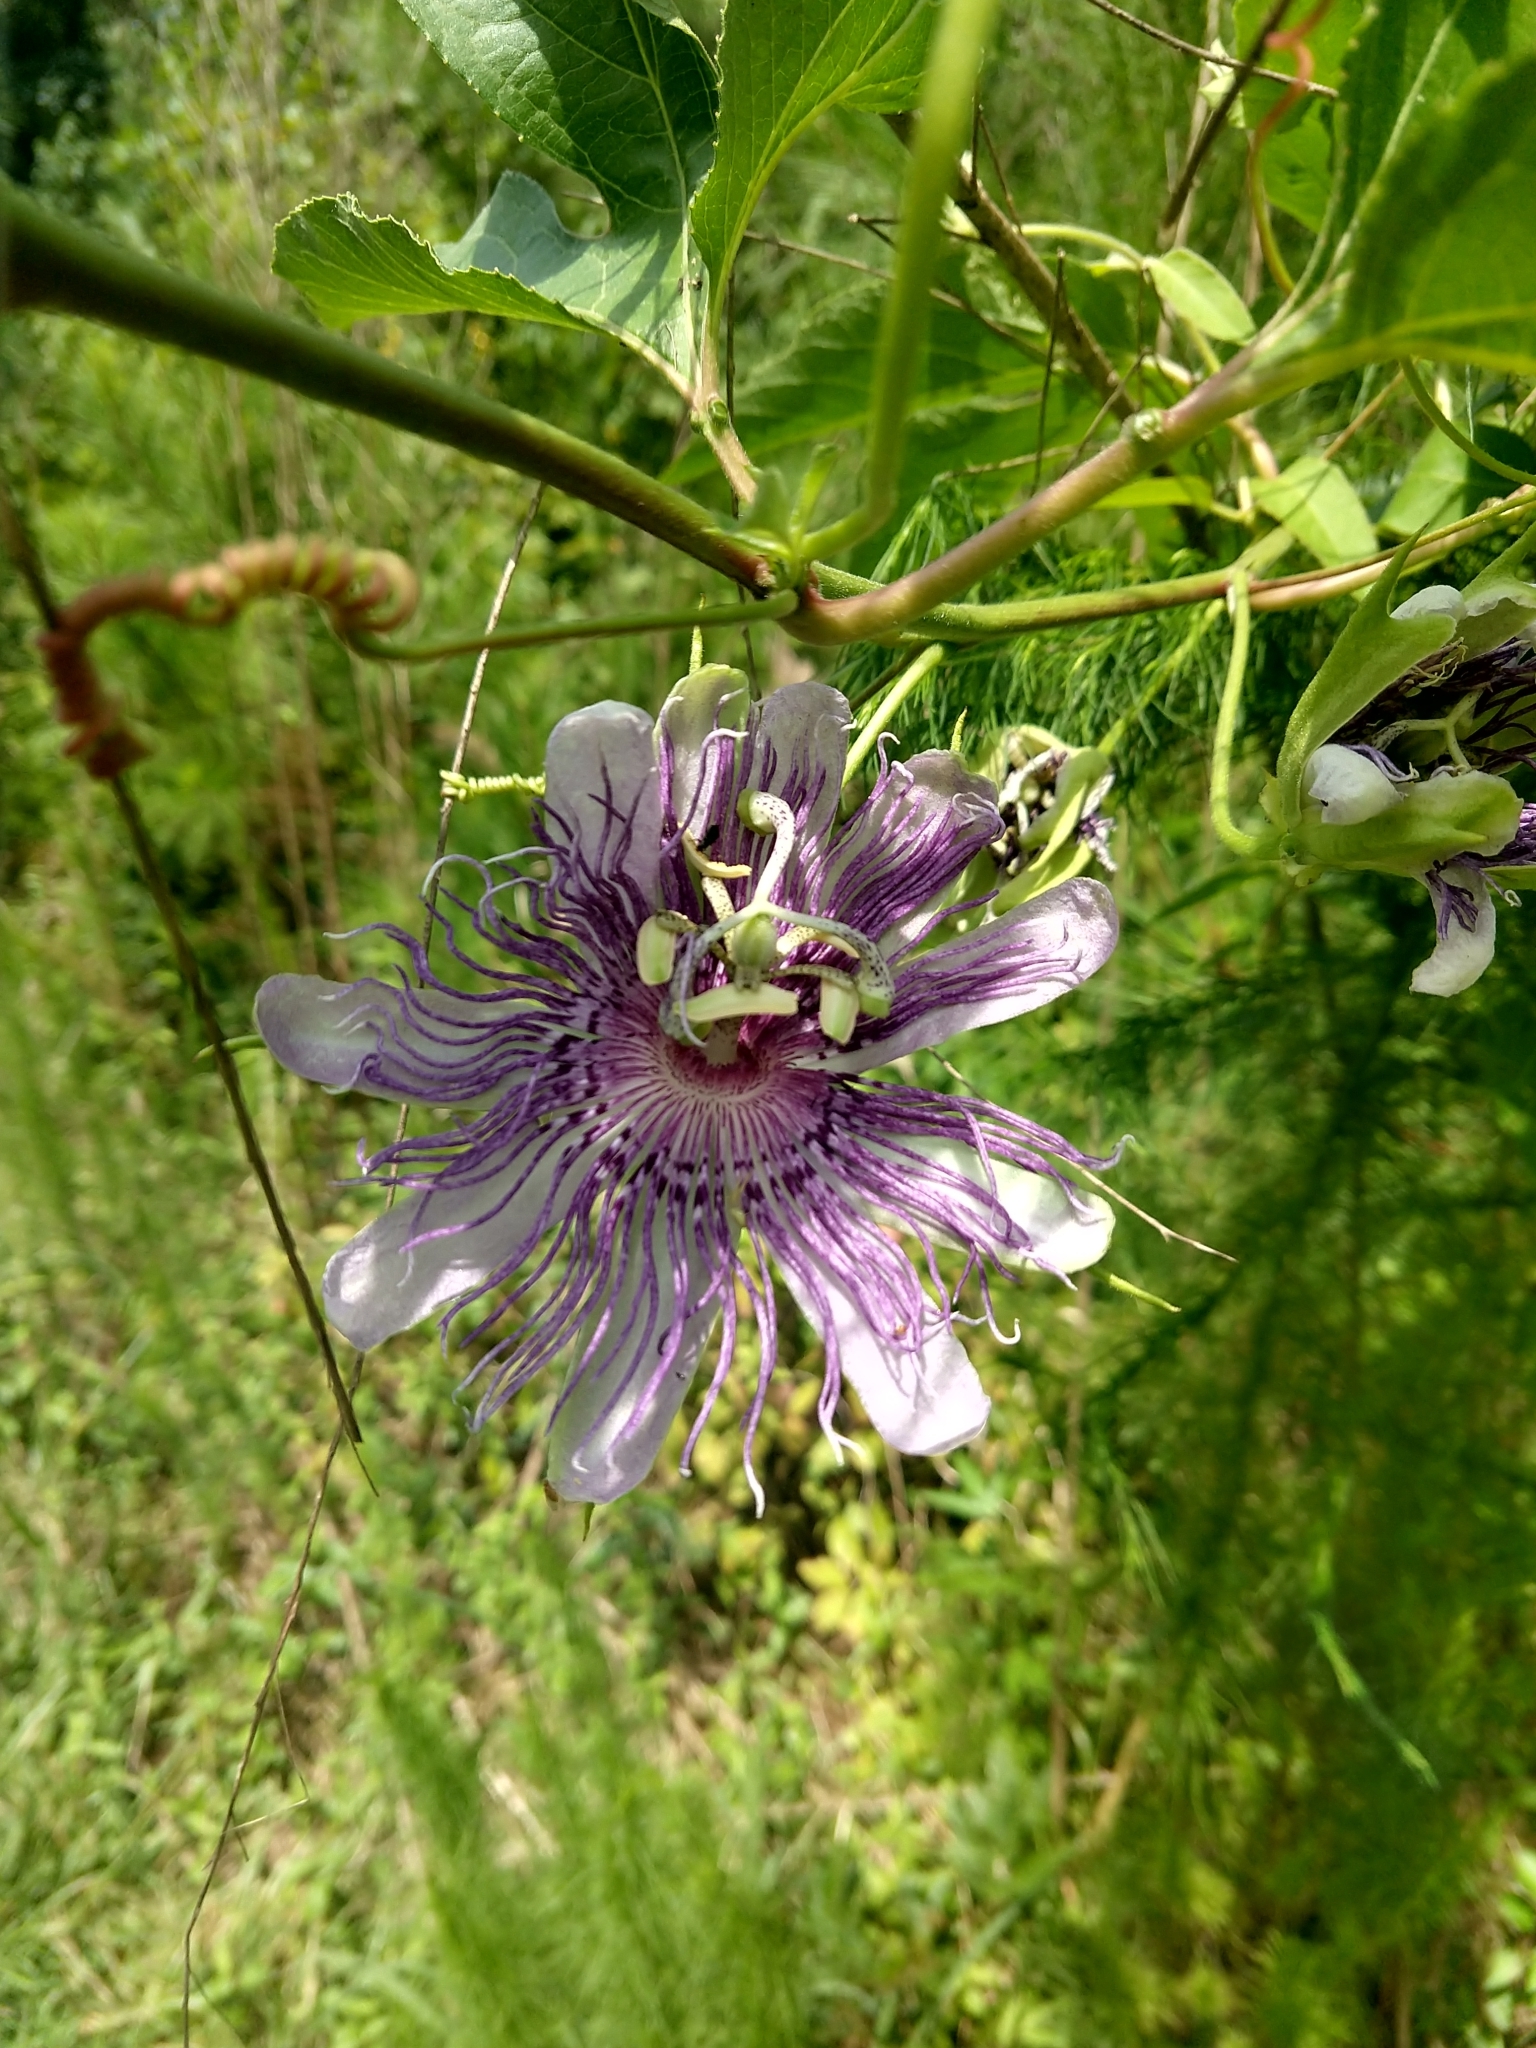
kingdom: Plantae
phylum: Tracheophyta
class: Magnoliopsida
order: Malpighiales
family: Passifloraceae
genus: Passiflora
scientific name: Passiflora incarnata
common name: Apricot-vine
